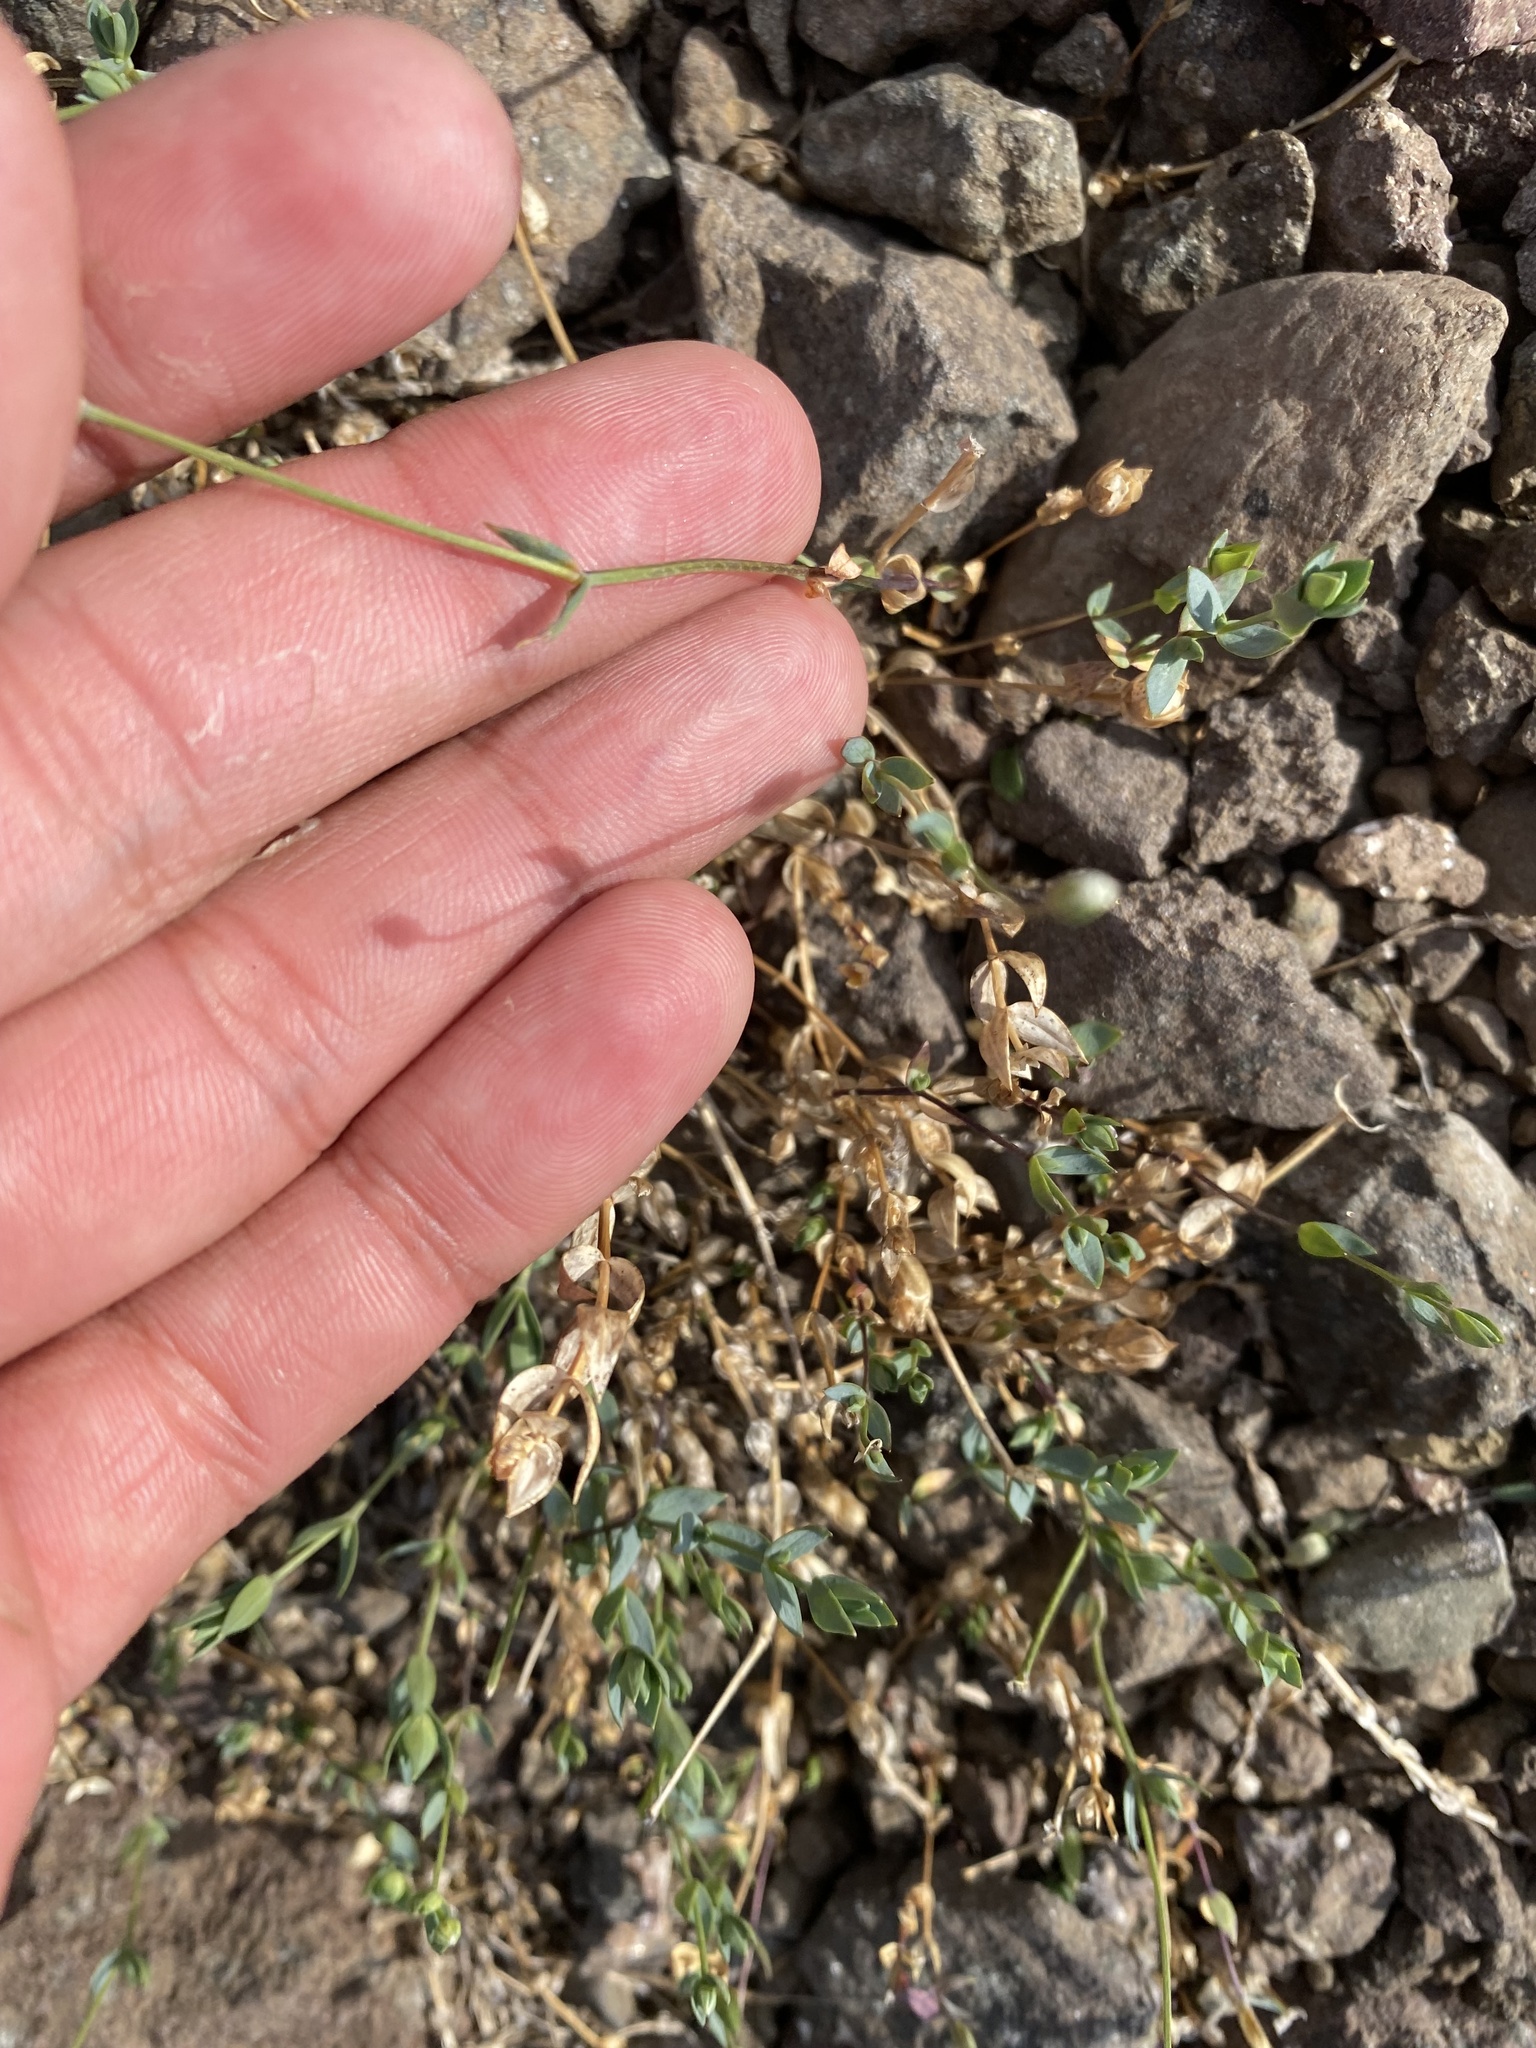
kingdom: Plantae
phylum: Tracheophyta
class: Magnoliopsida
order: Caryophyllales
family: Caryophyllaceae
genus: Stellaria
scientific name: Stellaria longipes
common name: Goldie's starwort
